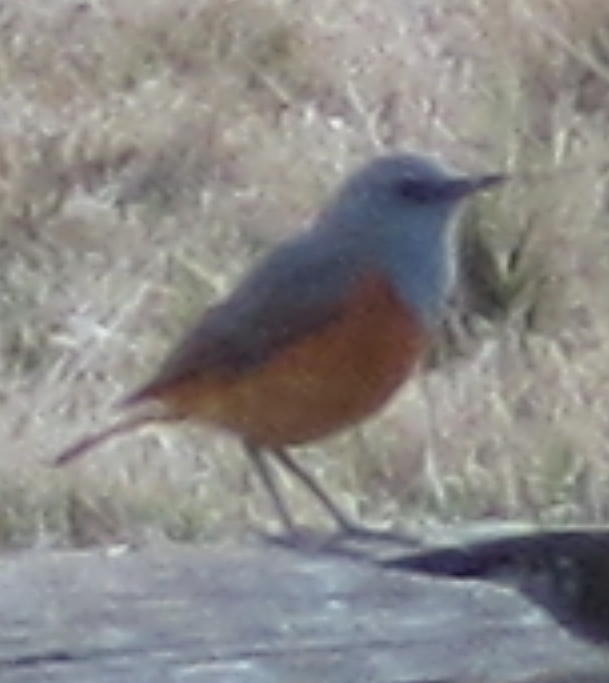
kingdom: Animalia
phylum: Chordata
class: Aves
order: Passeriformes
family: Muscicapidae
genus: Monticola
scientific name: Monticola explorator
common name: Sentinel rock thrush
